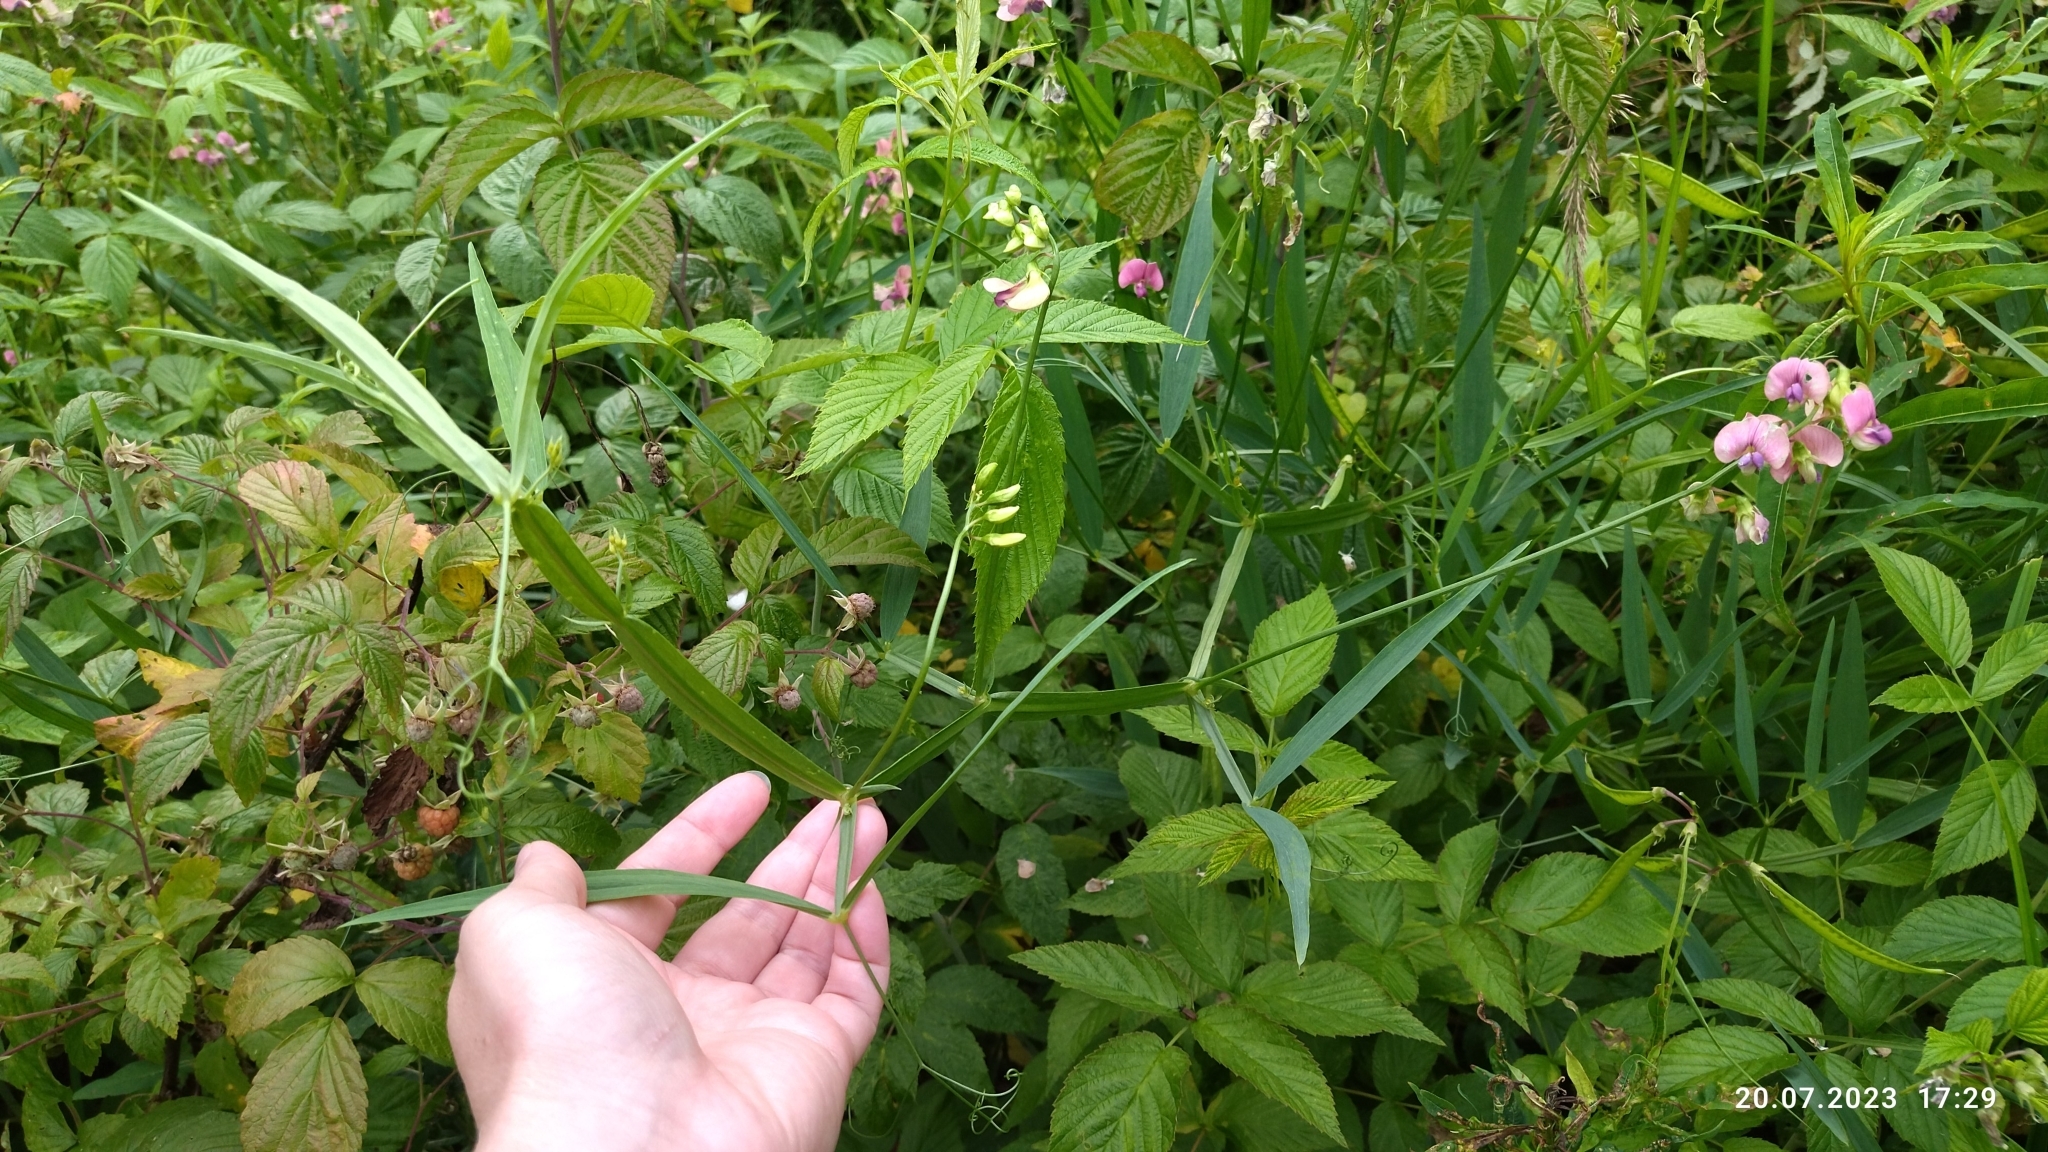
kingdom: Plantae
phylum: Tracheophyta
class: Magnoliopsida
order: Fabales
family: Fabaceae
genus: Lathyrus
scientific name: Lathyrus sylvestris
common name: Flat pea
